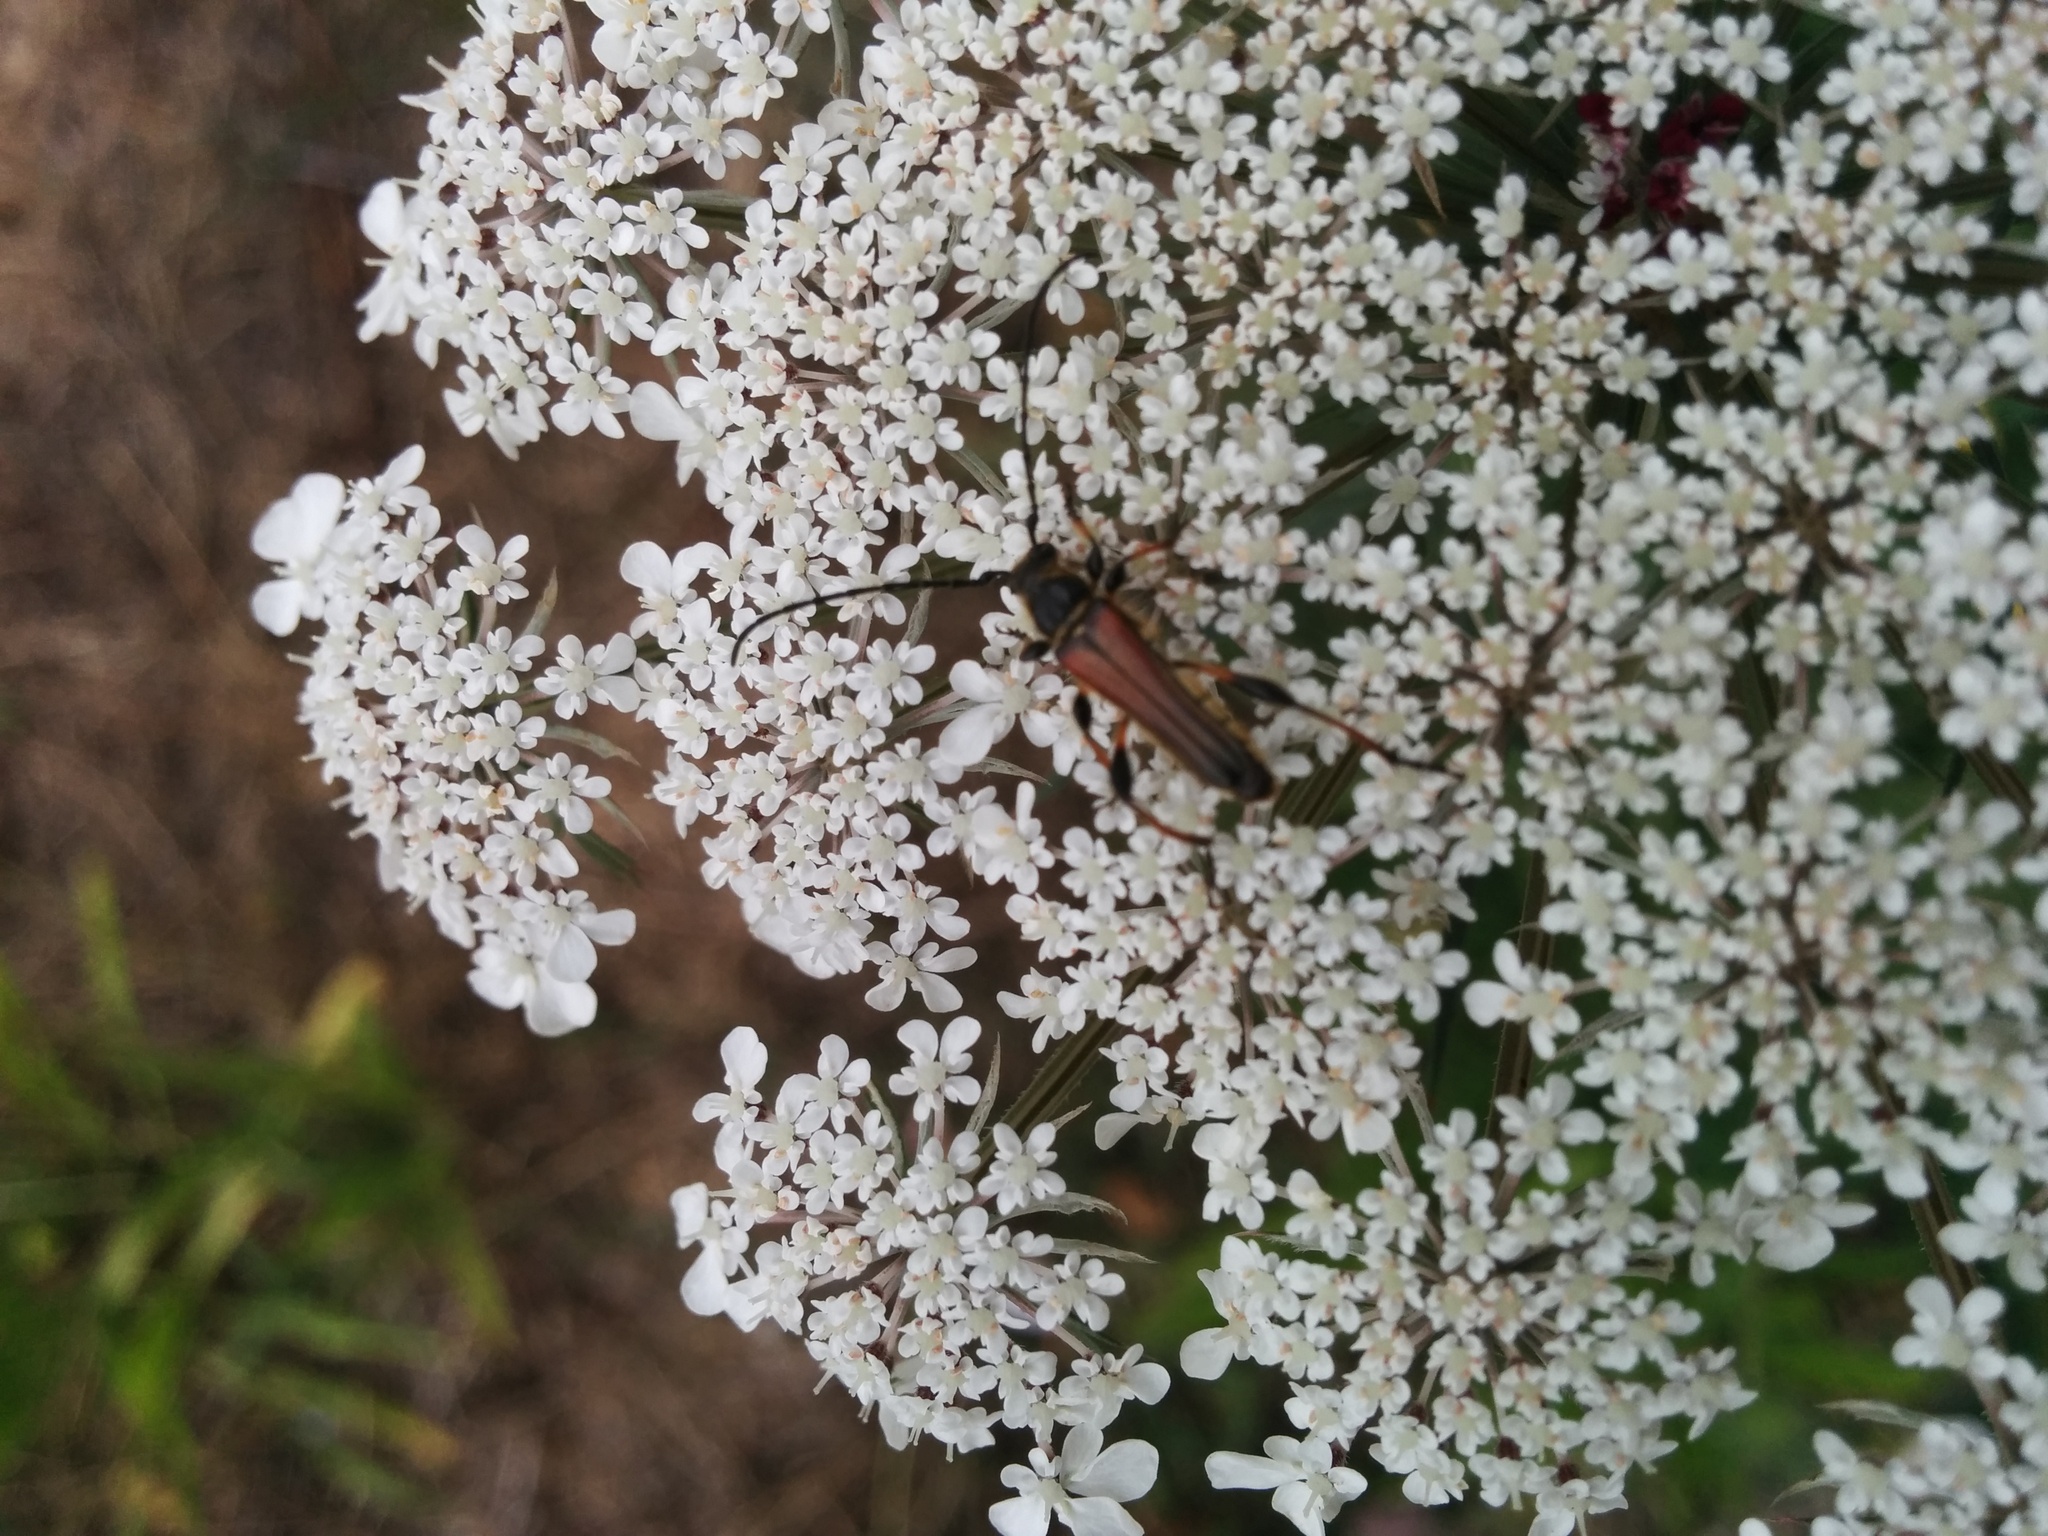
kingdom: Animalia
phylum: Arthropoda
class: Insecta
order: Coleoptera
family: Cerambycidae
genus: Stenopterus
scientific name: Stenopterus ater
